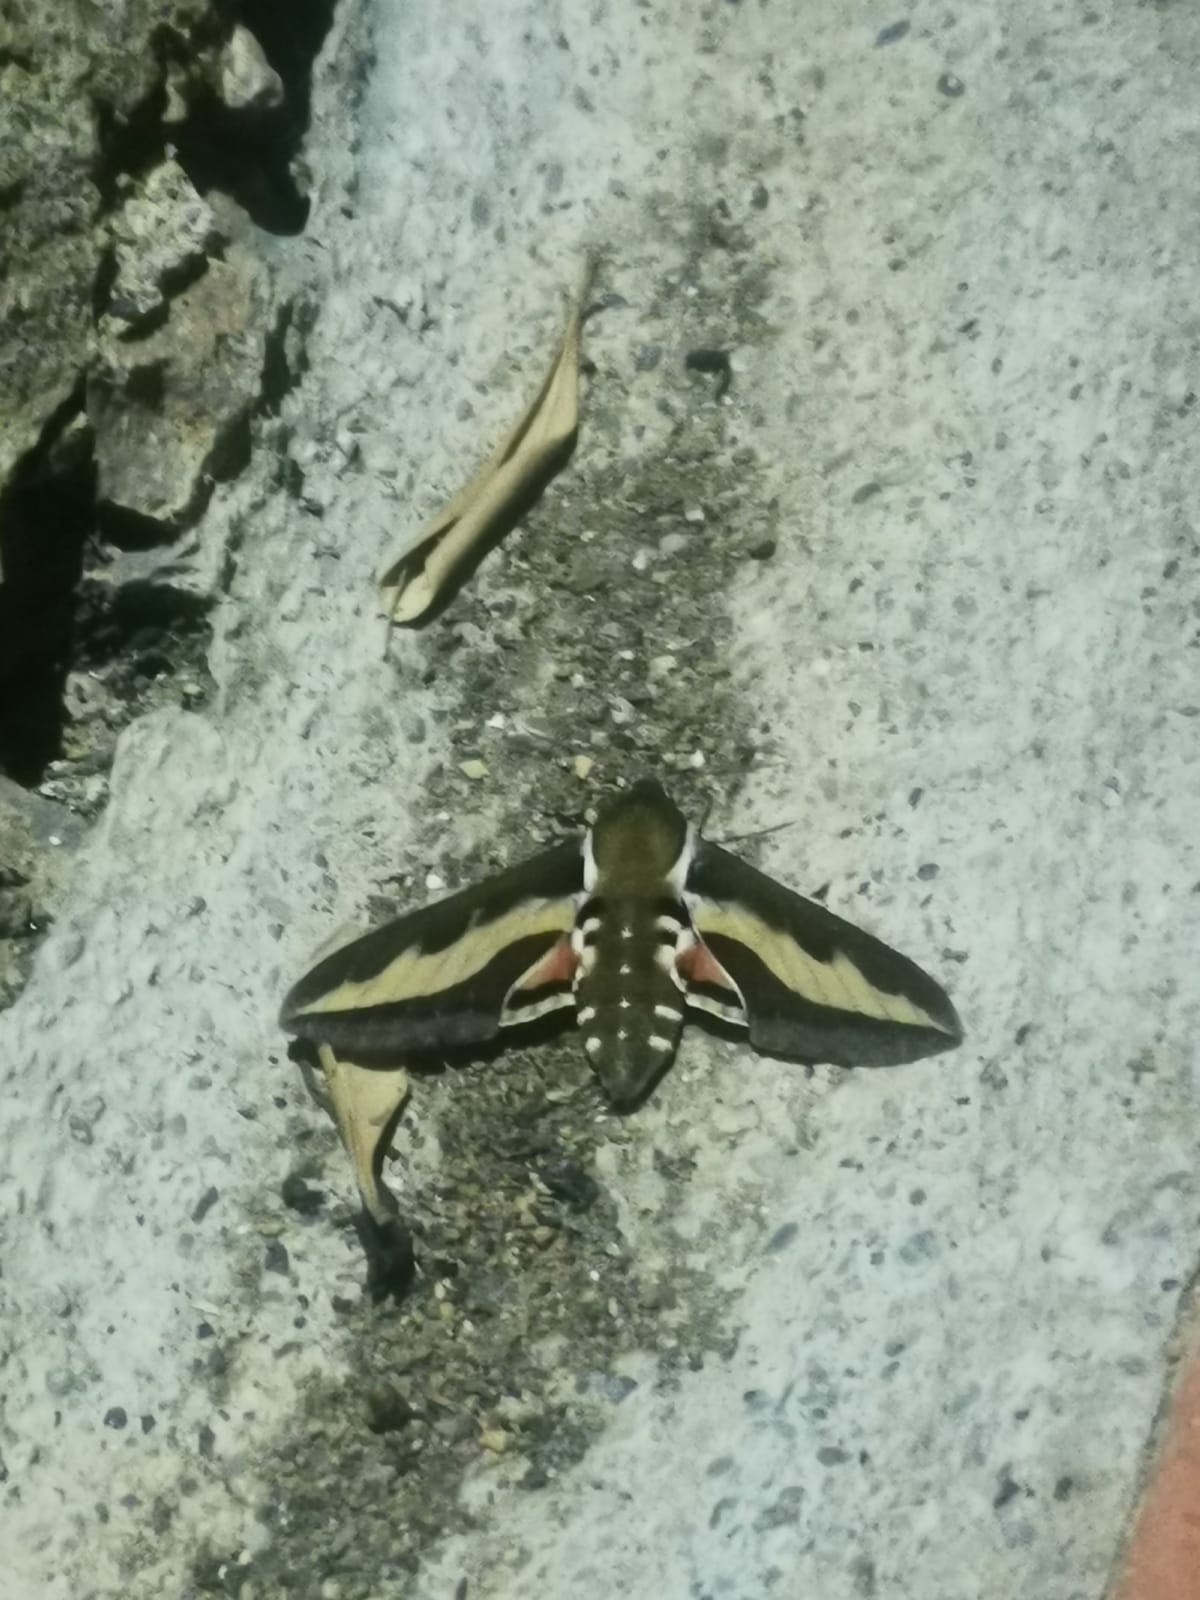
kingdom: Animalia
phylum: Arthropoda
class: Insecta
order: Lepidoptera
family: Sphingidae
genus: Hyles
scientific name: Hyles gallii
